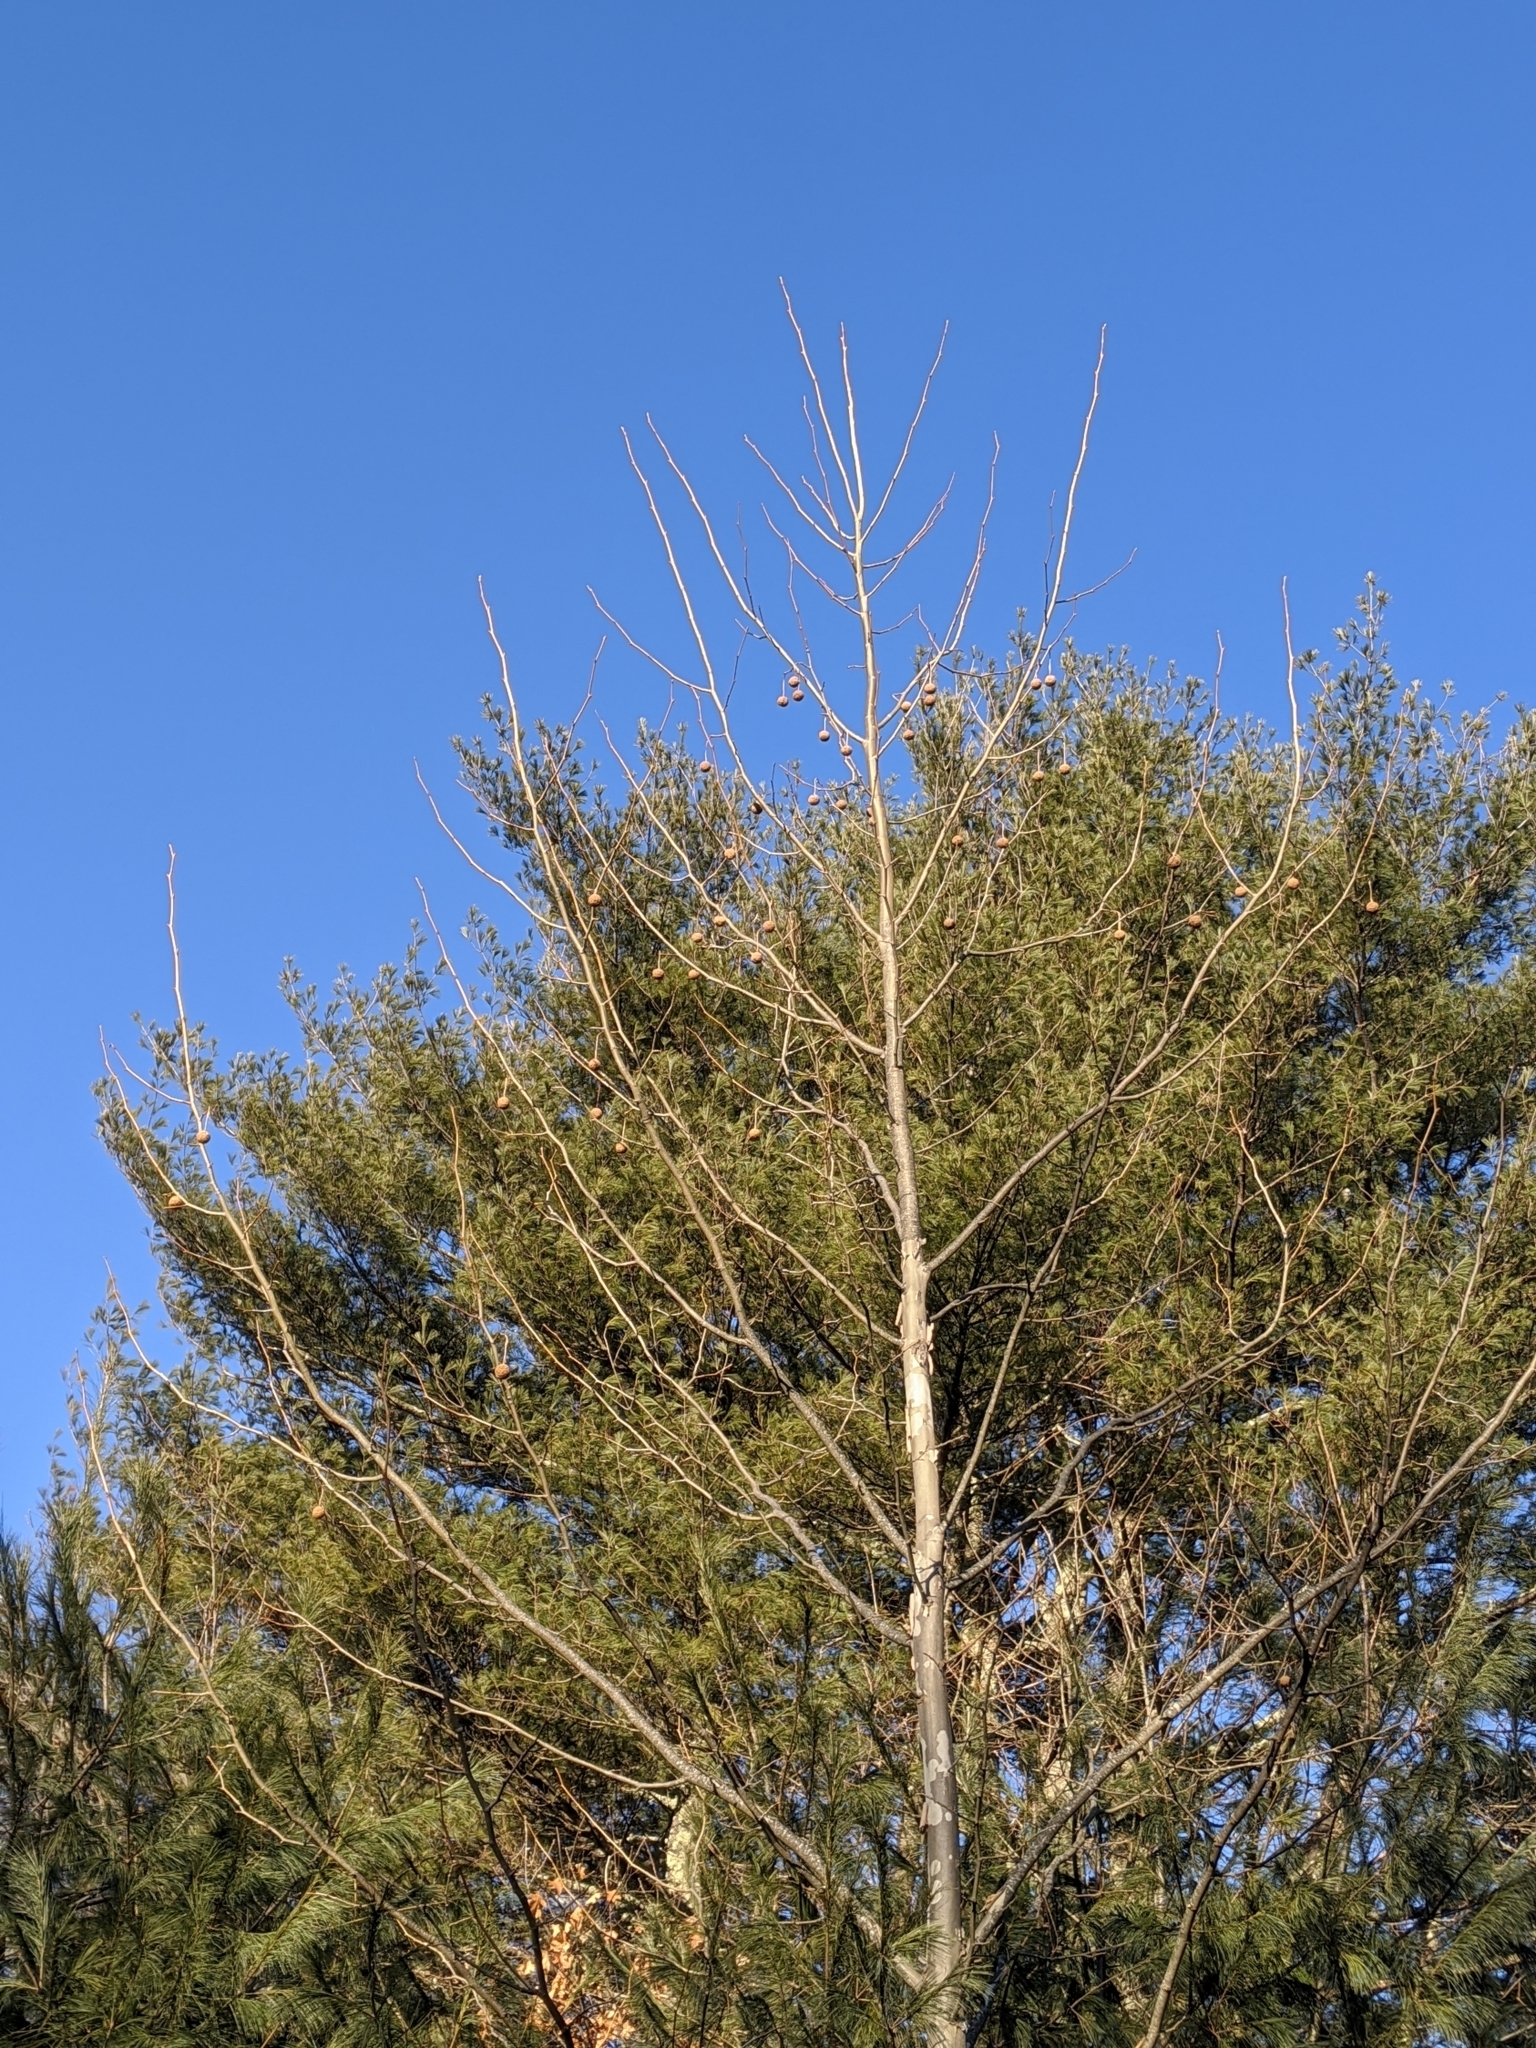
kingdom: Plantae
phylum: Tracheophyta
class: Magnoliopsida
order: Proteales
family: Platanaceae
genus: Platanus
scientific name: Platanus occidentalis
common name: American sycamore
